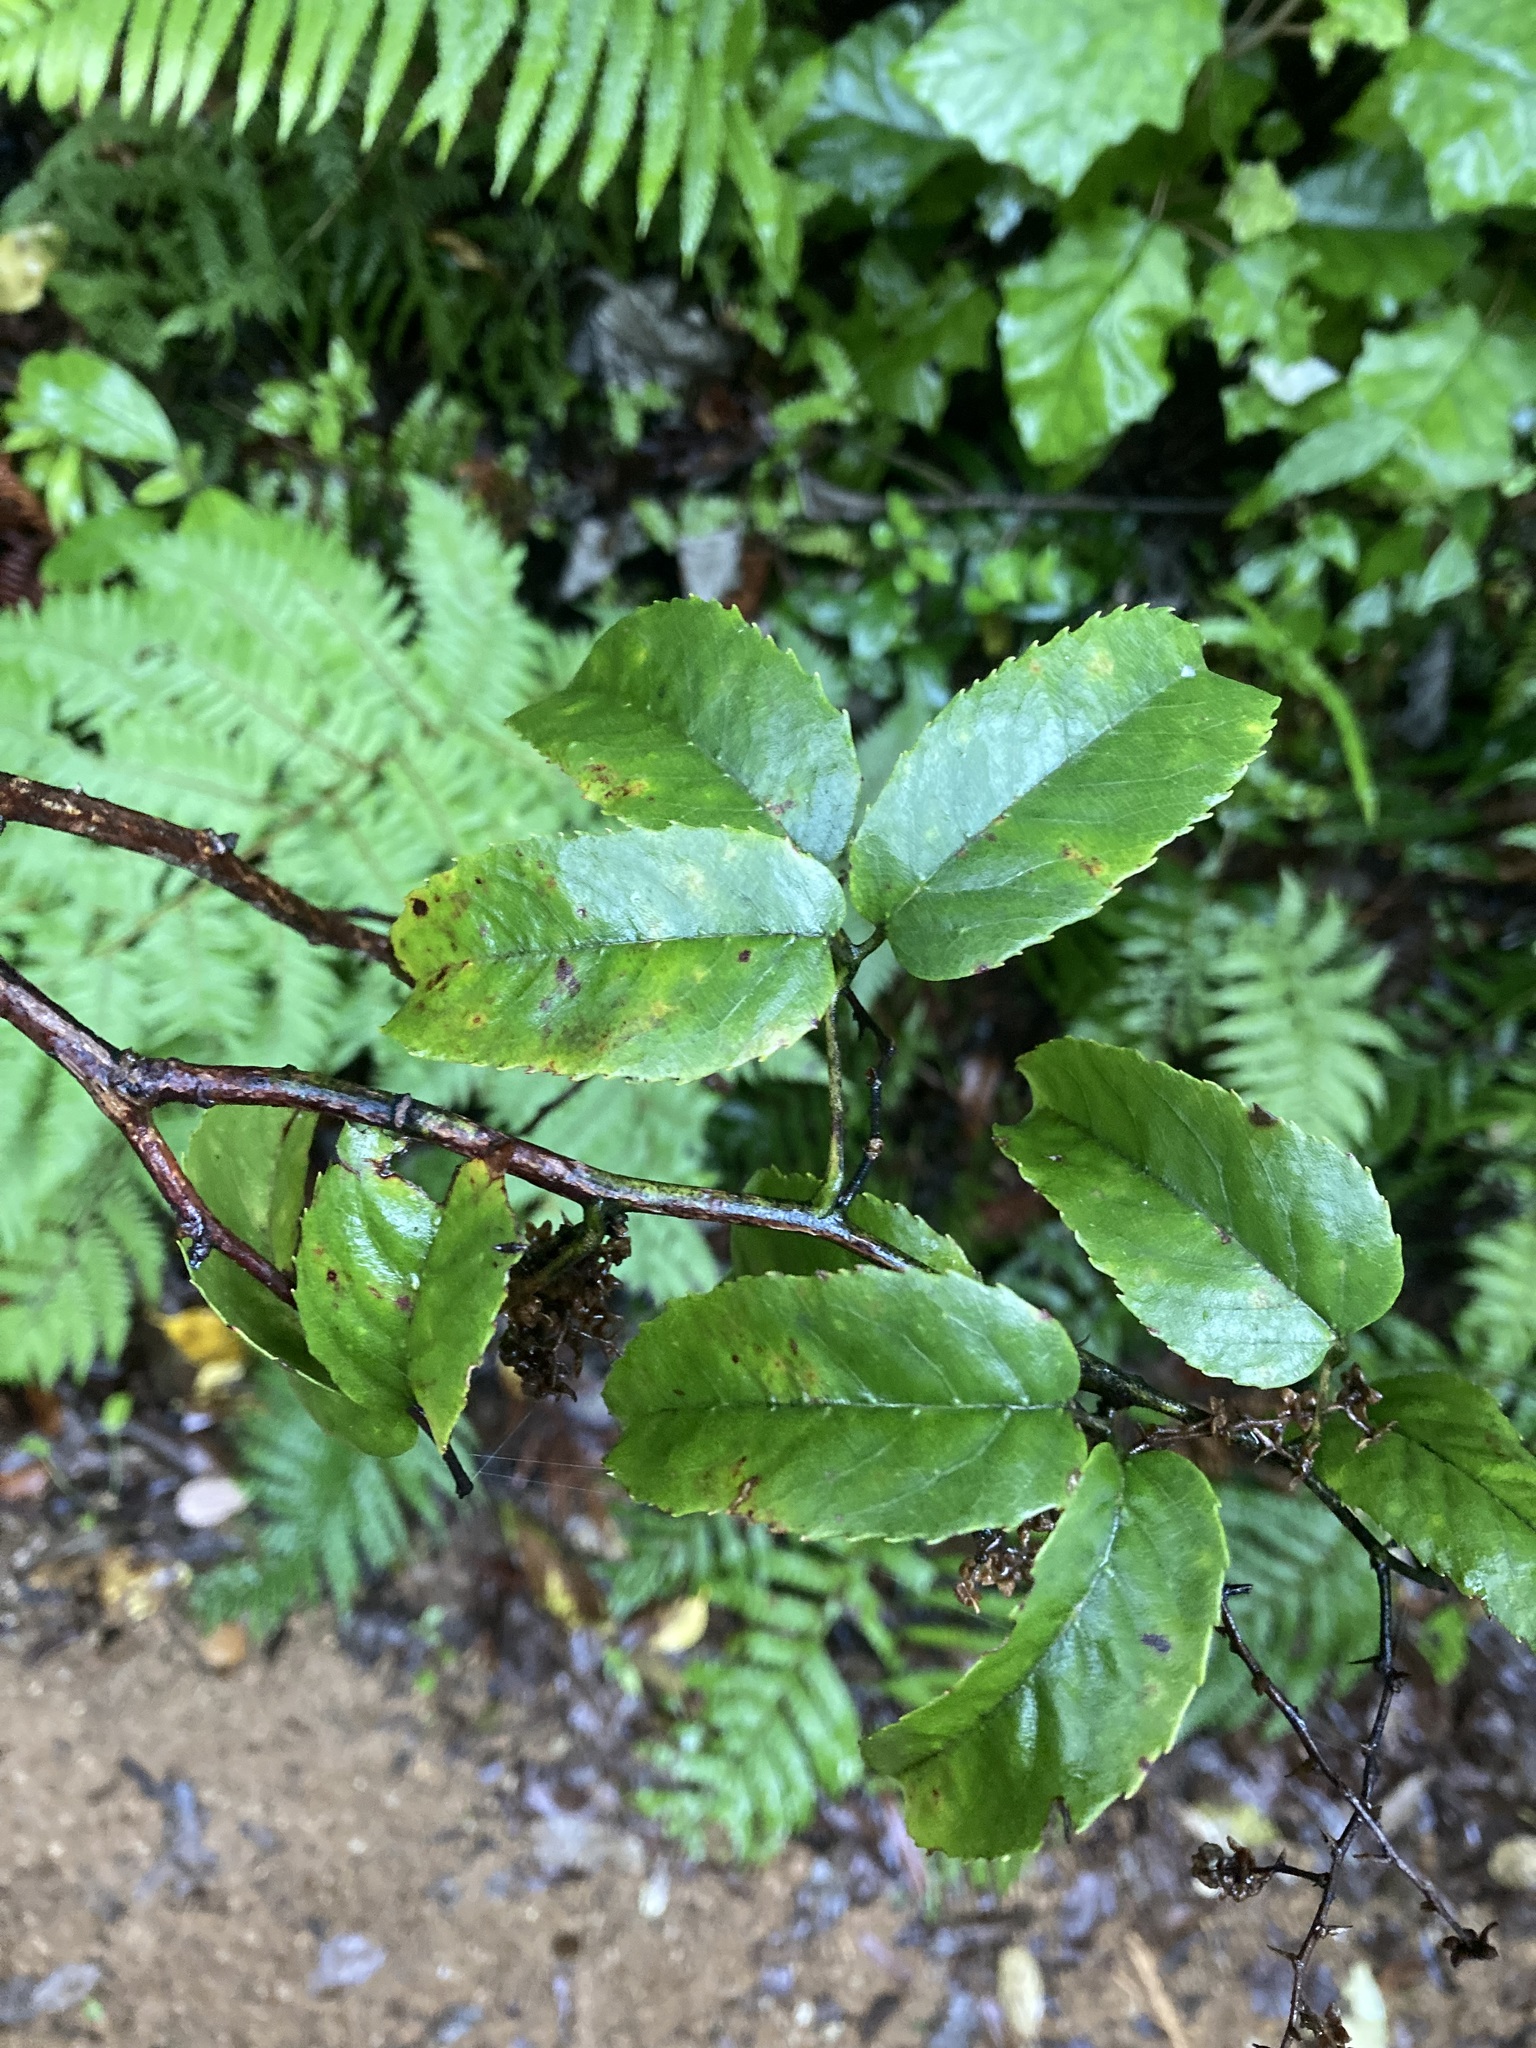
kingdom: Plantae
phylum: Tracheophyta
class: Magnoliopsida
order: Rosales
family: Rosaceae
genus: Rubus
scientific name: Rubus cissoides
